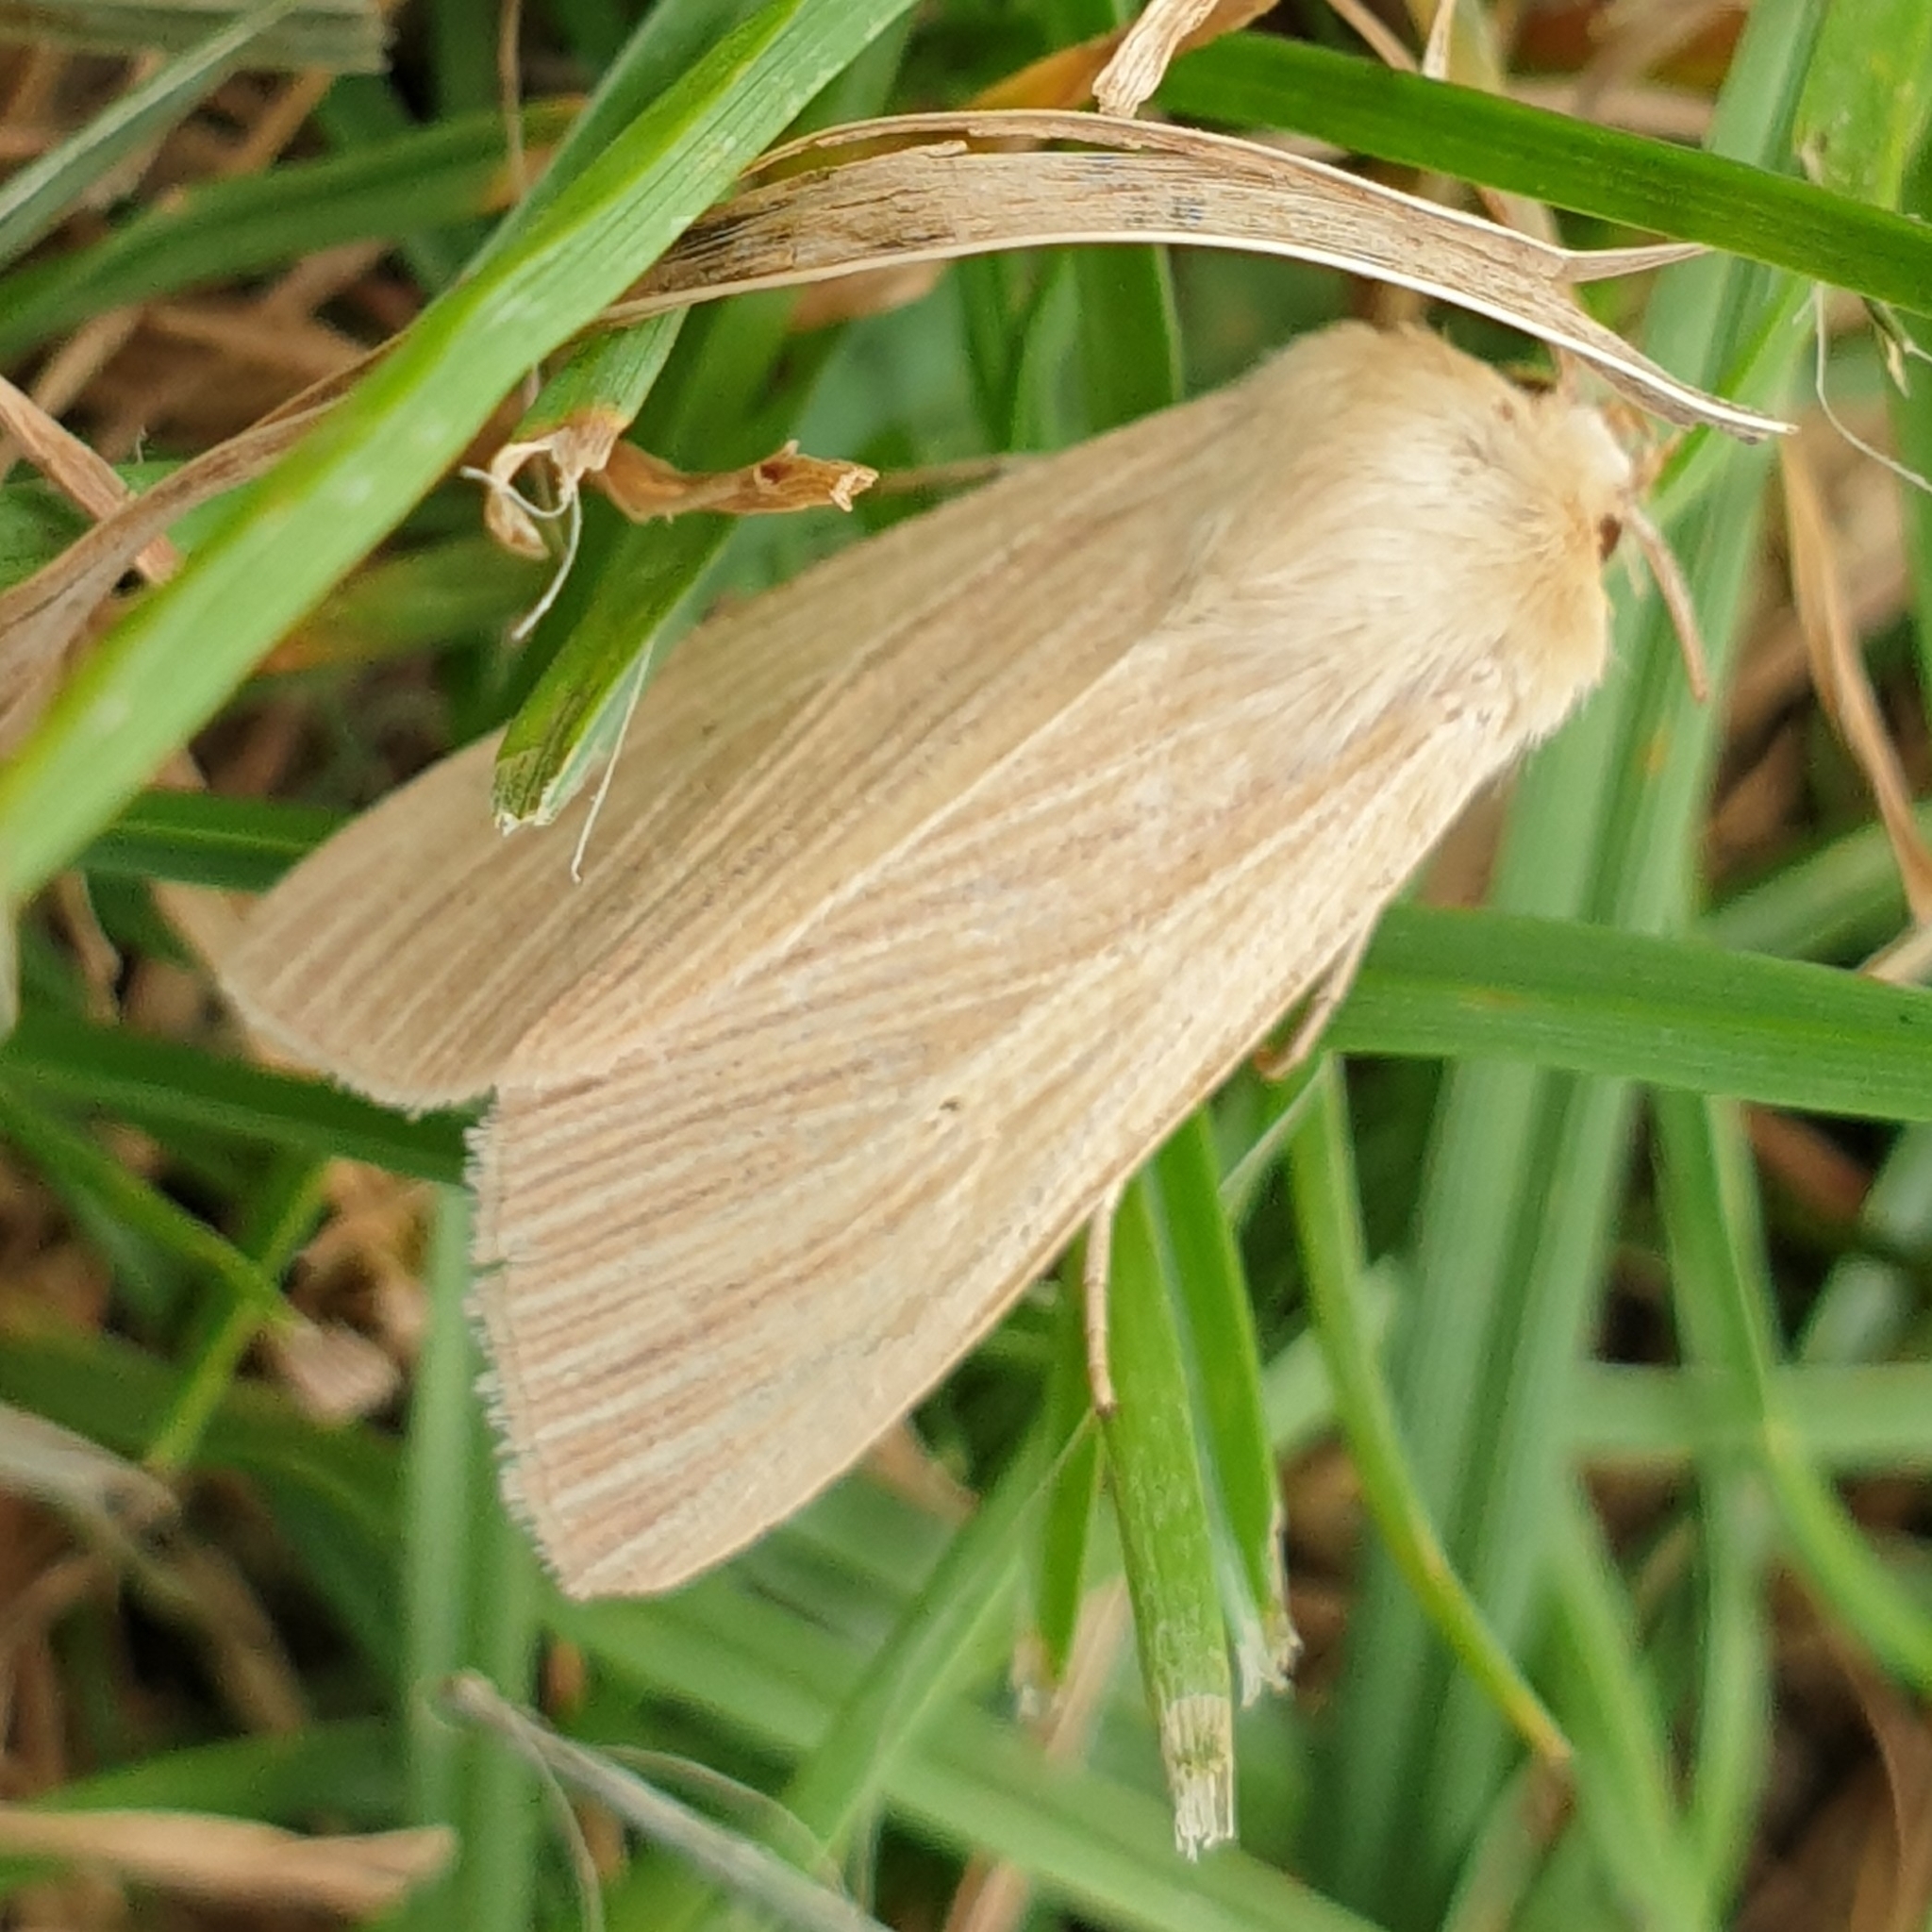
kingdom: Animalia
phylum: Arthropoda
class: Insecta
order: Lepidoptera
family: Noctuidae
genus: Mythimna
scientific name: Mythimna pallens
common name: Common wainscot
